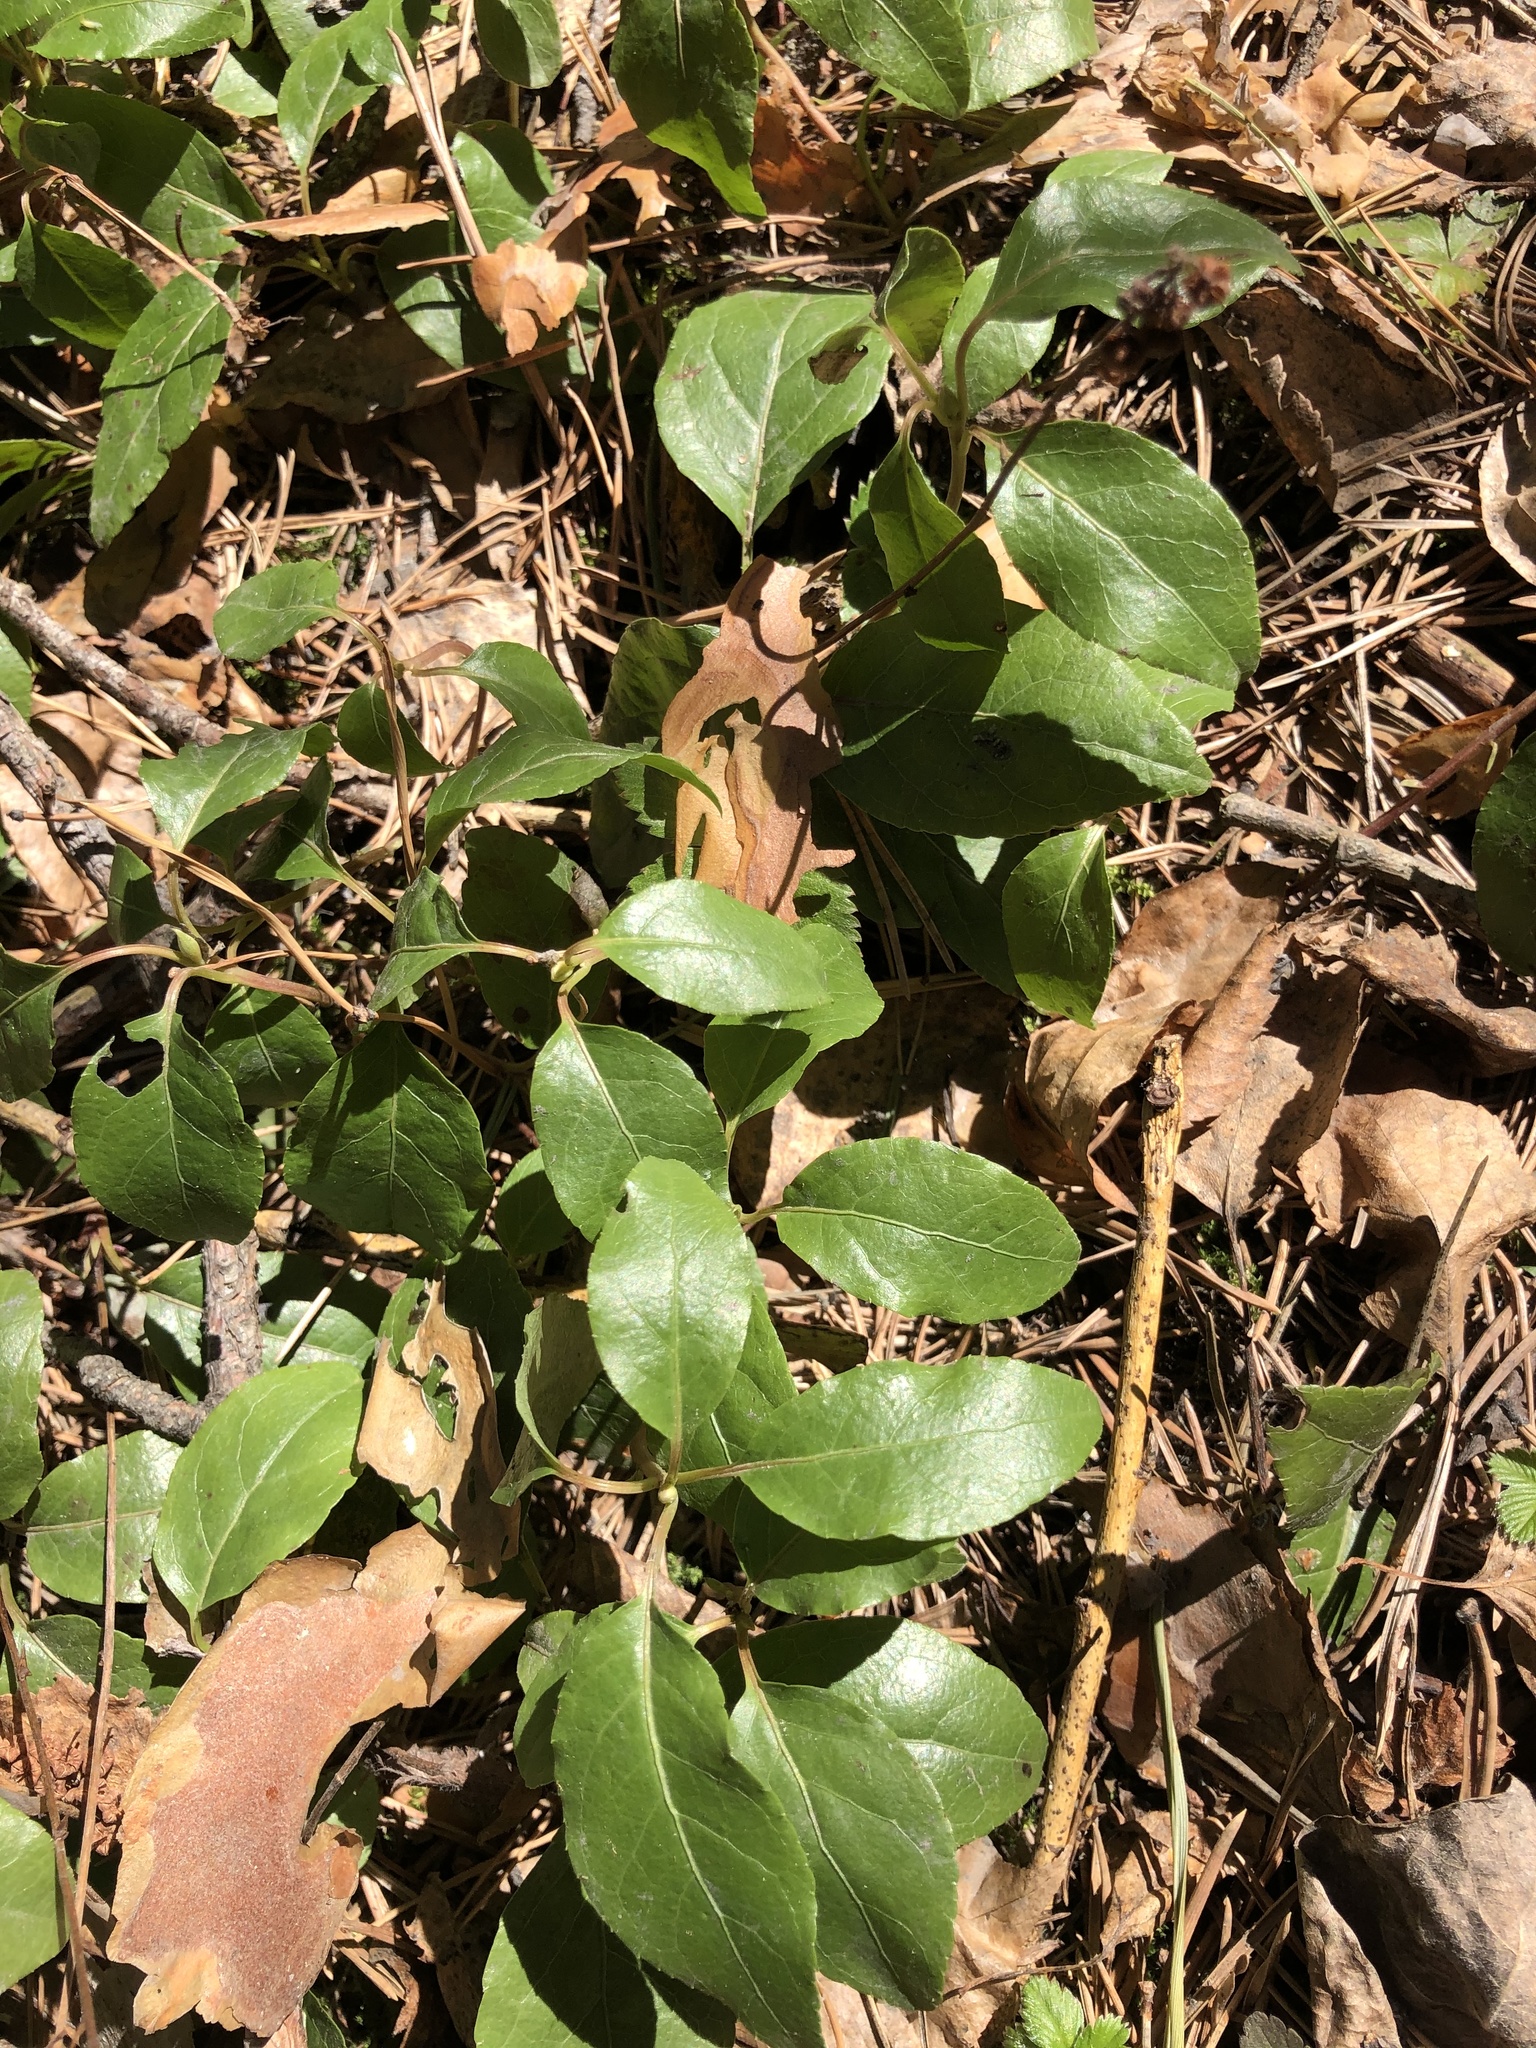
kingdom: Plantae
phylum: Tracheophyta
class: Magnoliopsida
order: Ericales
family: Ericaceae
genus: Orthilia
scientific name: Orthilia secunda
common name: One-sided orthilia
